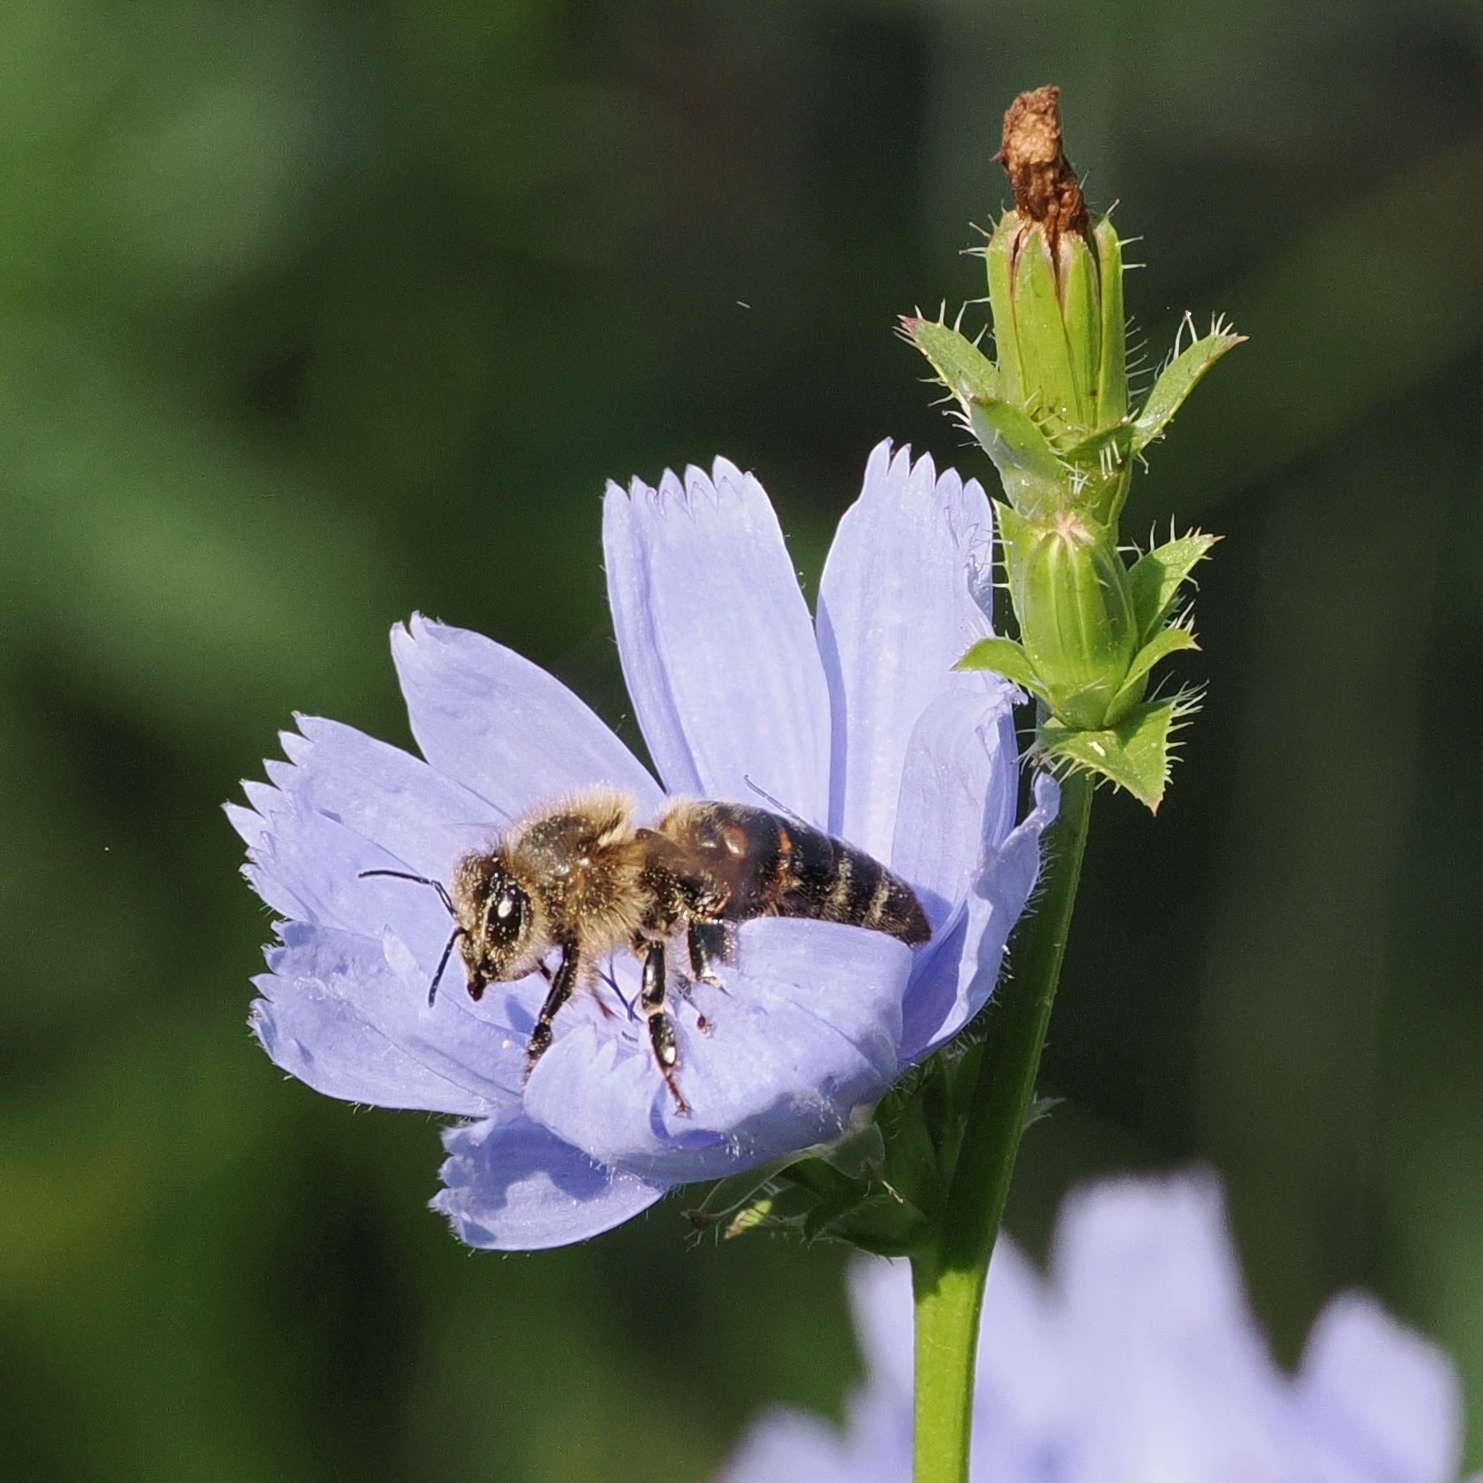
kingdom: Animalia
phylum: Arthropoda
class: Insecta
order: Hymenoptera
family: Apidae
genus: Apis
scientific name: Apis mellifera
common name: Honey bee
